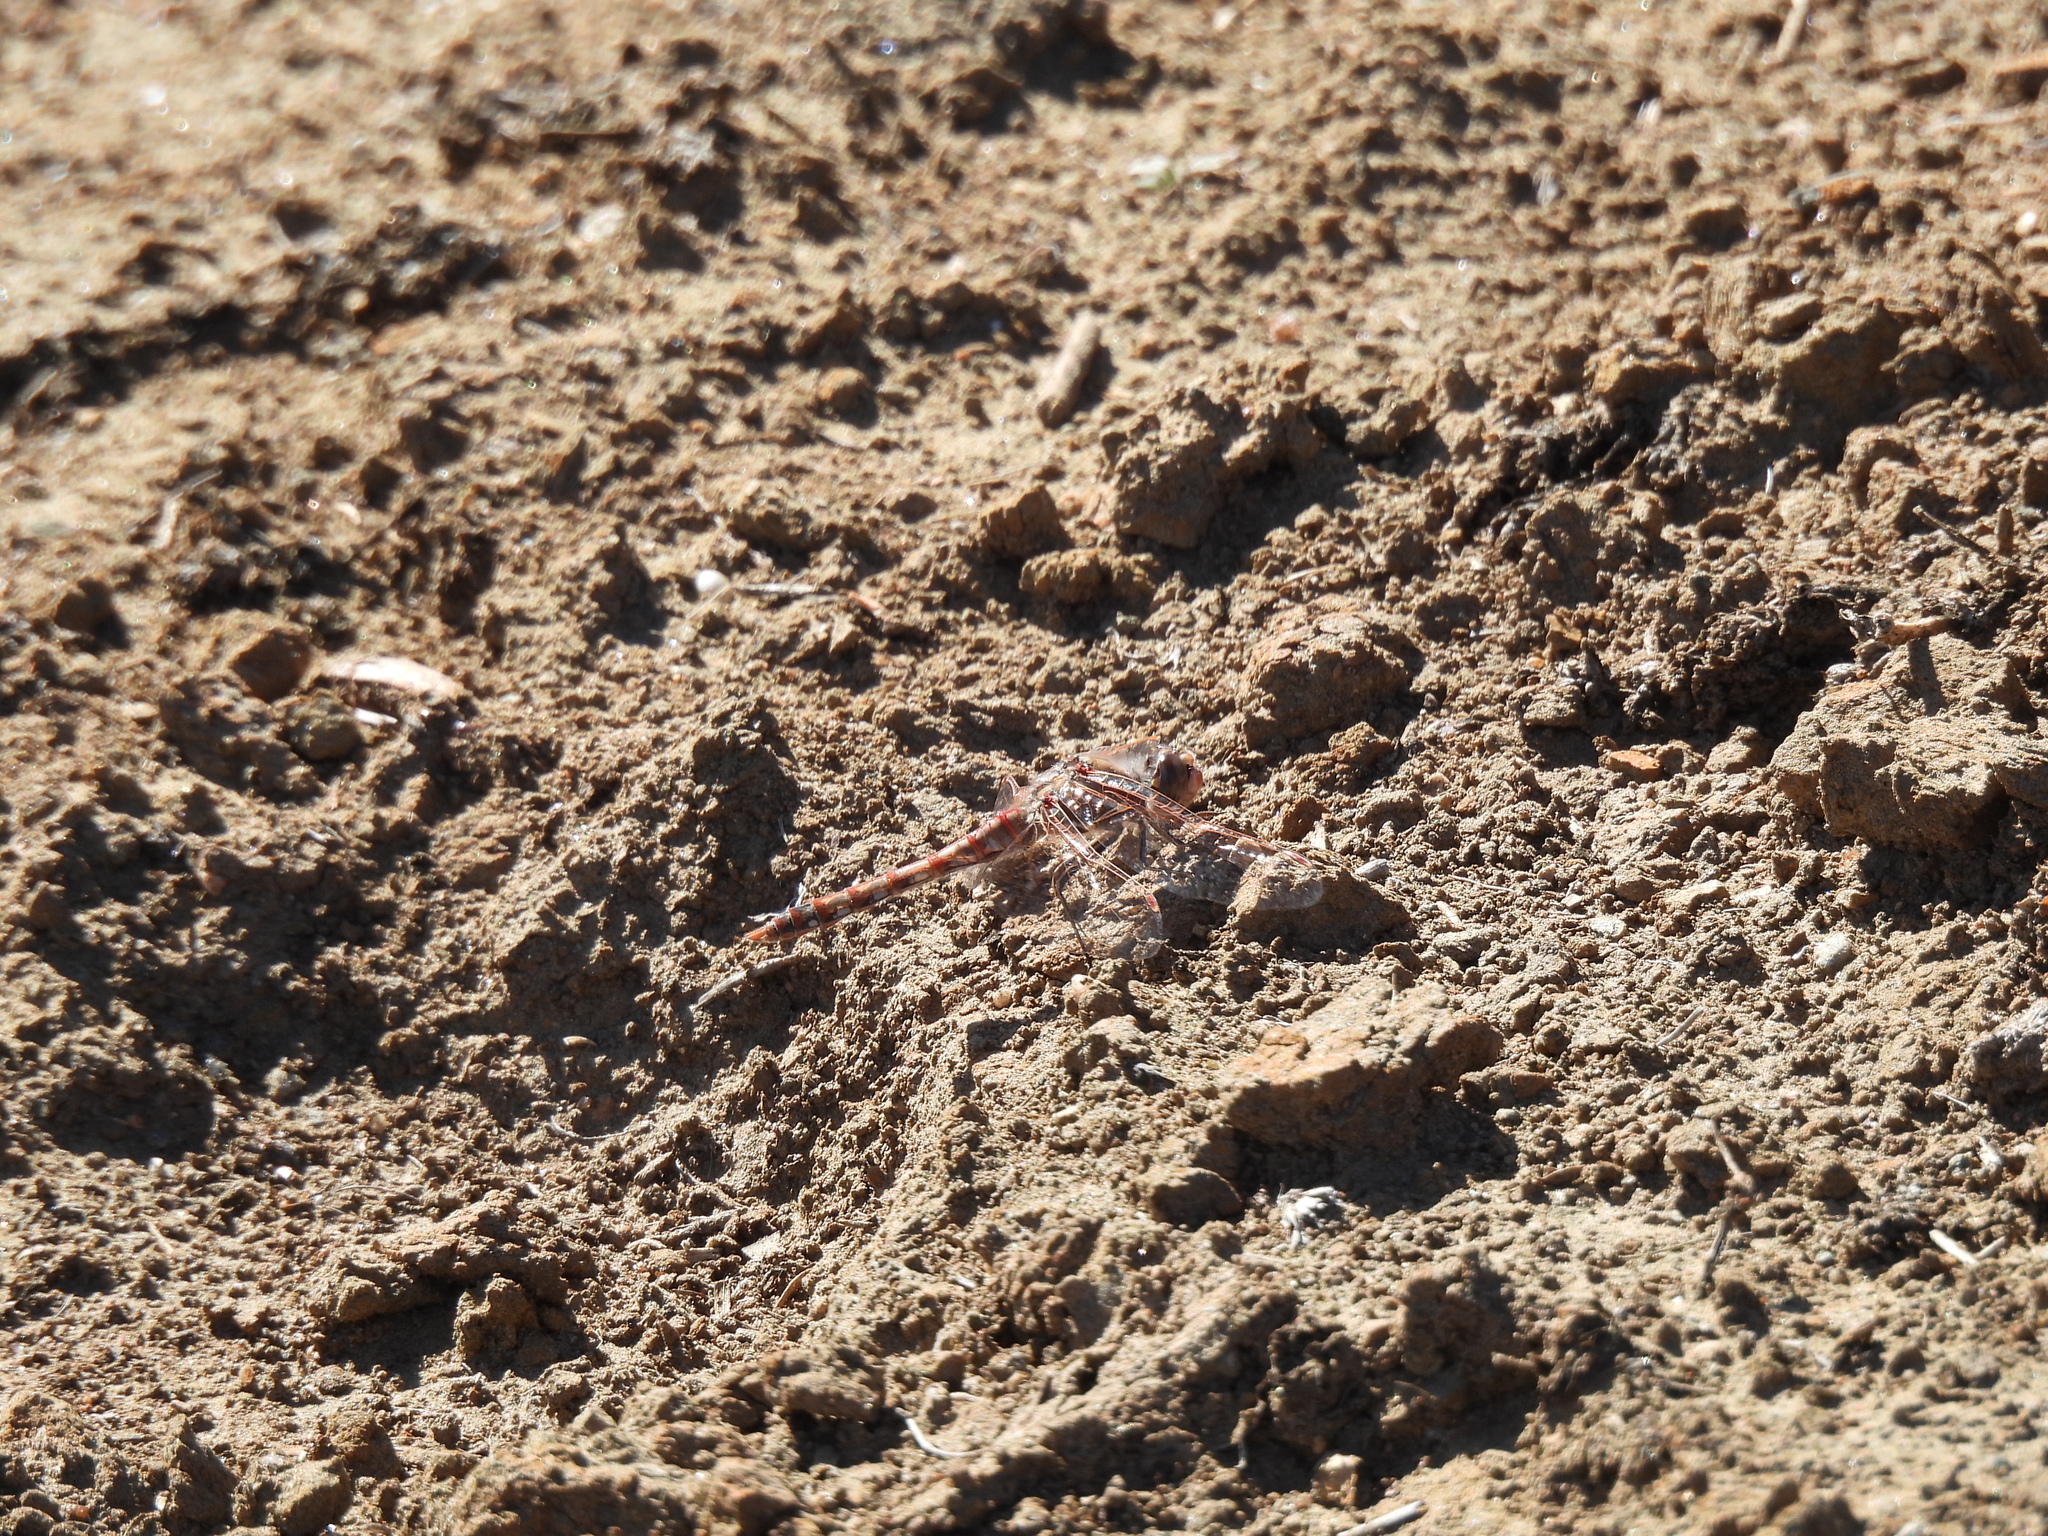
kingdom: Animalia
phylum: Arthropoda
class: Insecta
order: Odonata
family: Libellulidae
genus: Sympetrum
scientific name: Sympetrum corruptum
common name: Variegated meadowhawk
